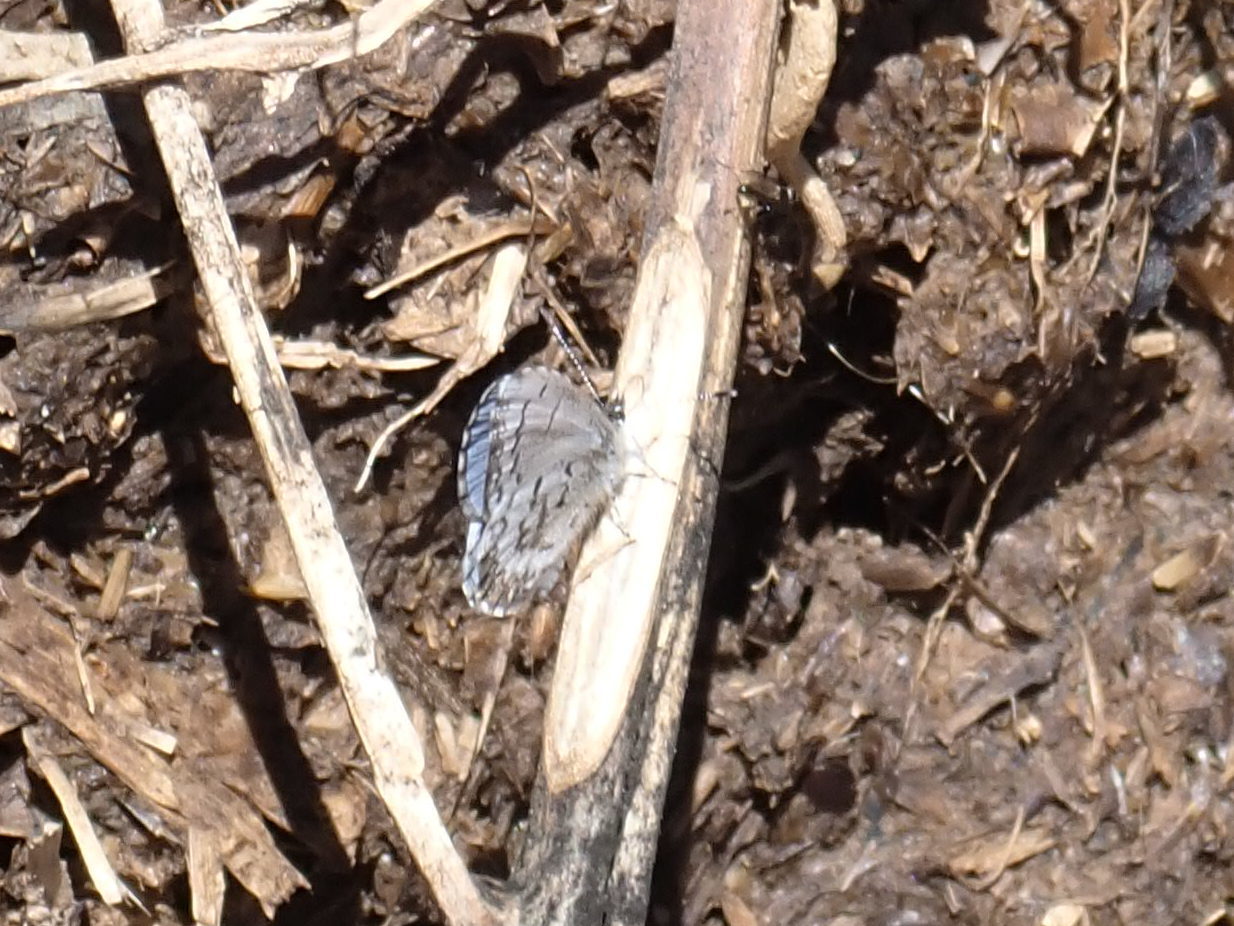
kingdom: Animalia
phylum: Arthropoda
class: Insecta
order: Lepidoptera
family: Lycaenidae
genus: Celastrina
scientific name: Celastrina lucia
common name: Lucia azure
